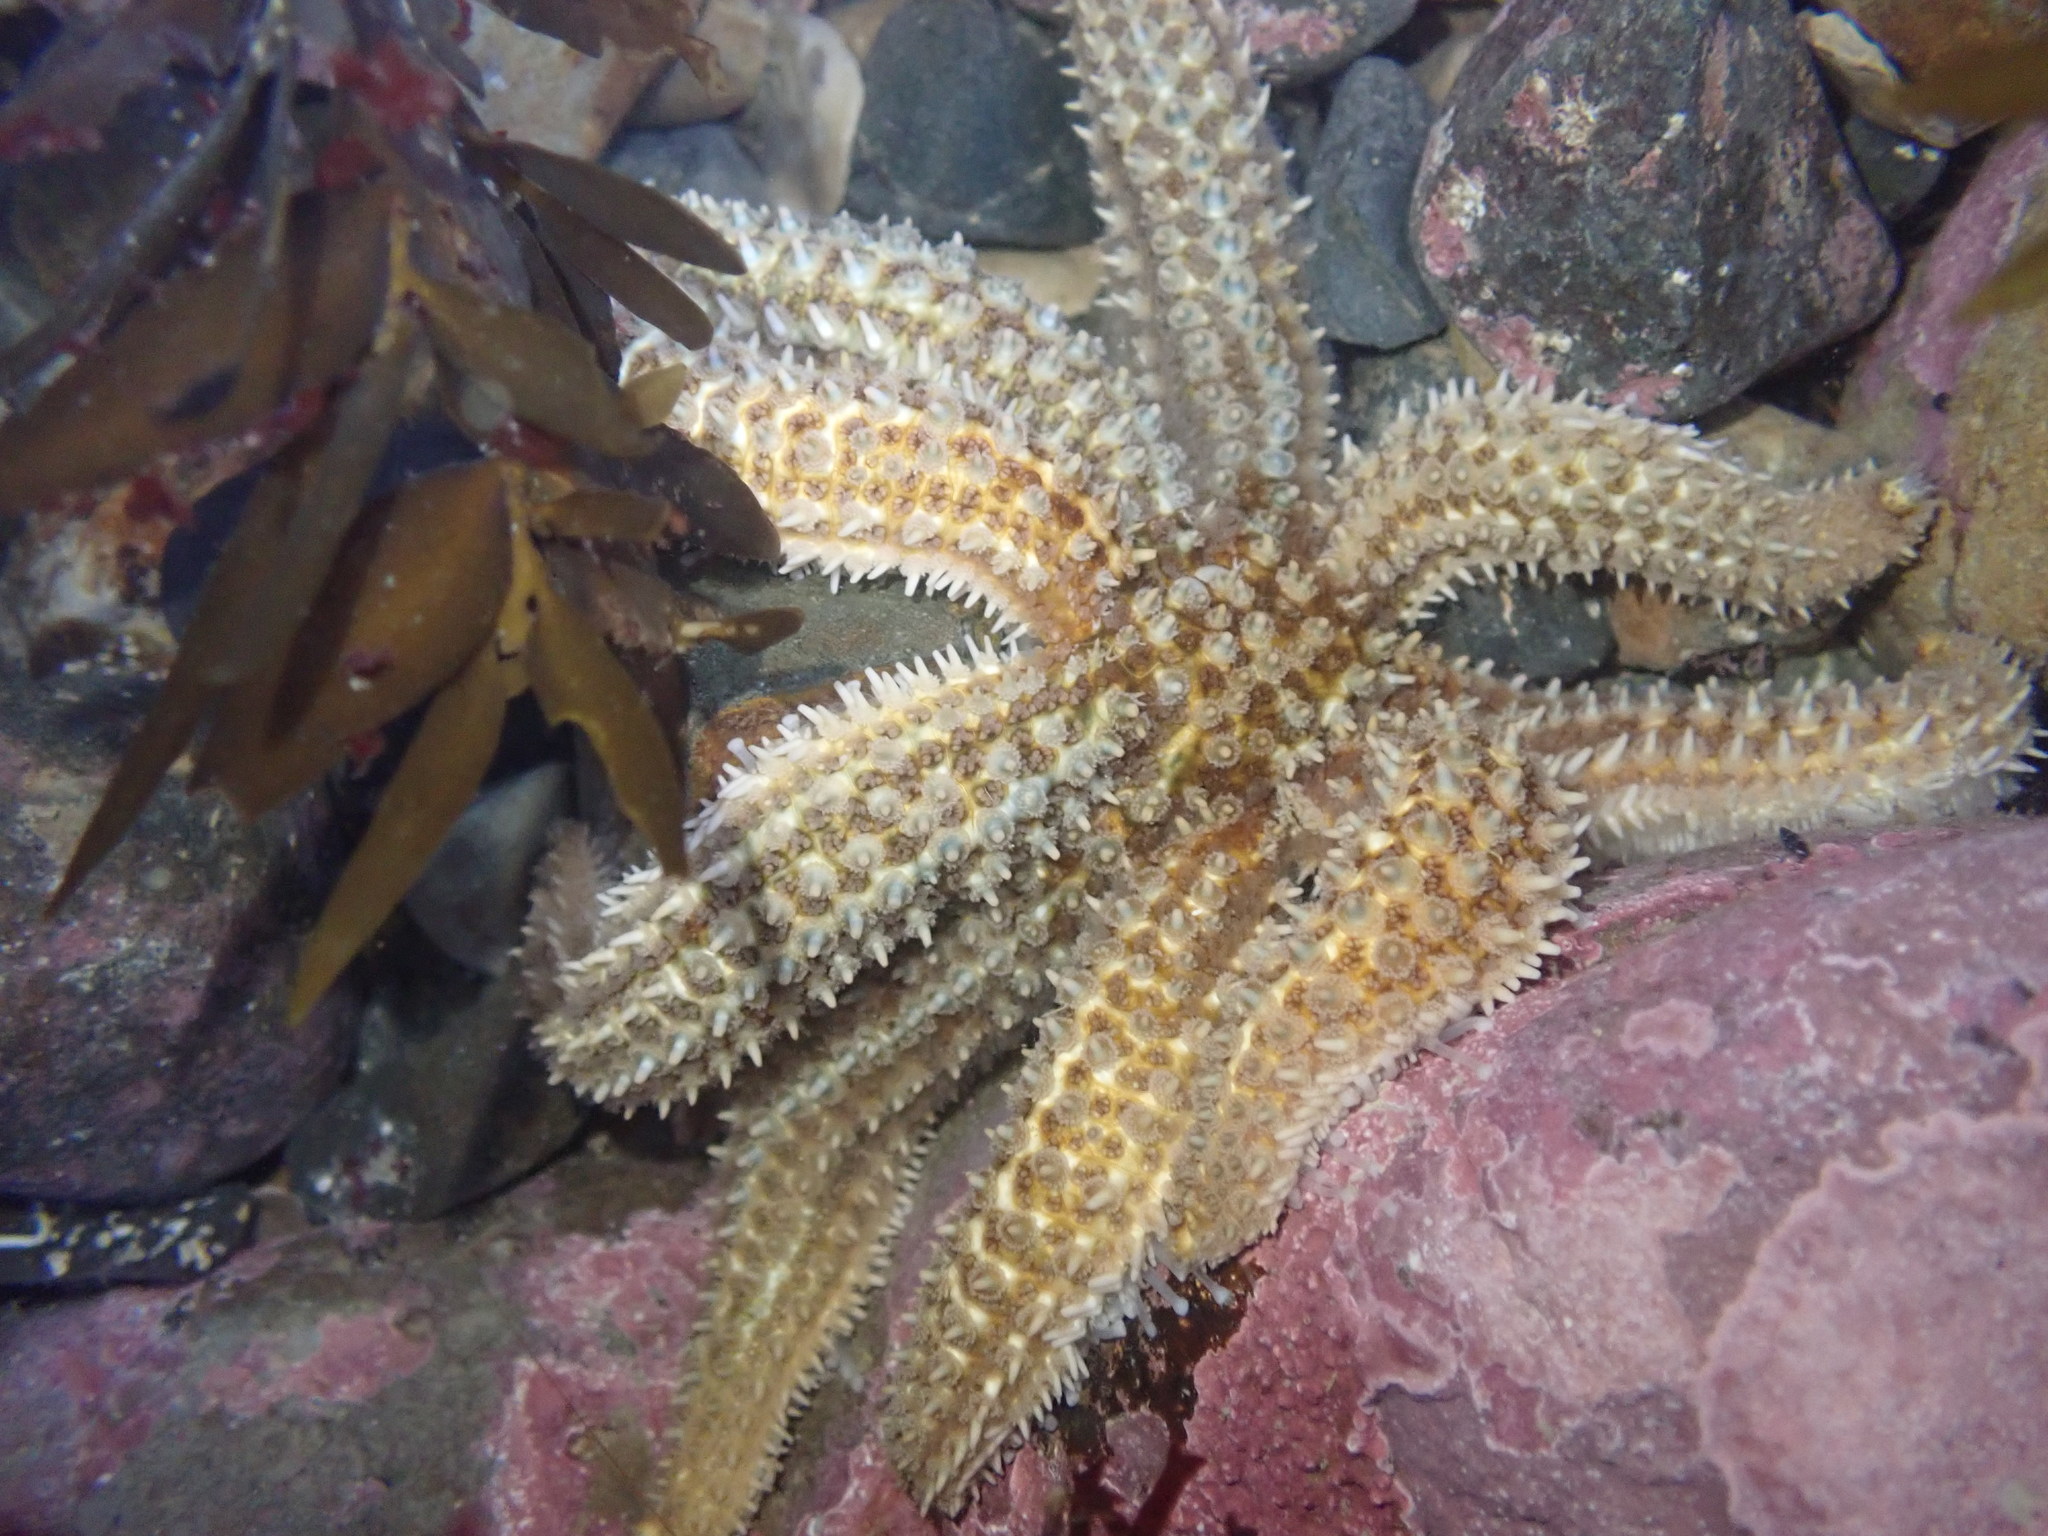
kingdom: Animalia
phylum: Echinodermata
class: Asteroidea
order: Forcipulatida
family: Asteriidae
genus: Coscinasterias
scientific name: Coscinasterias muricata
